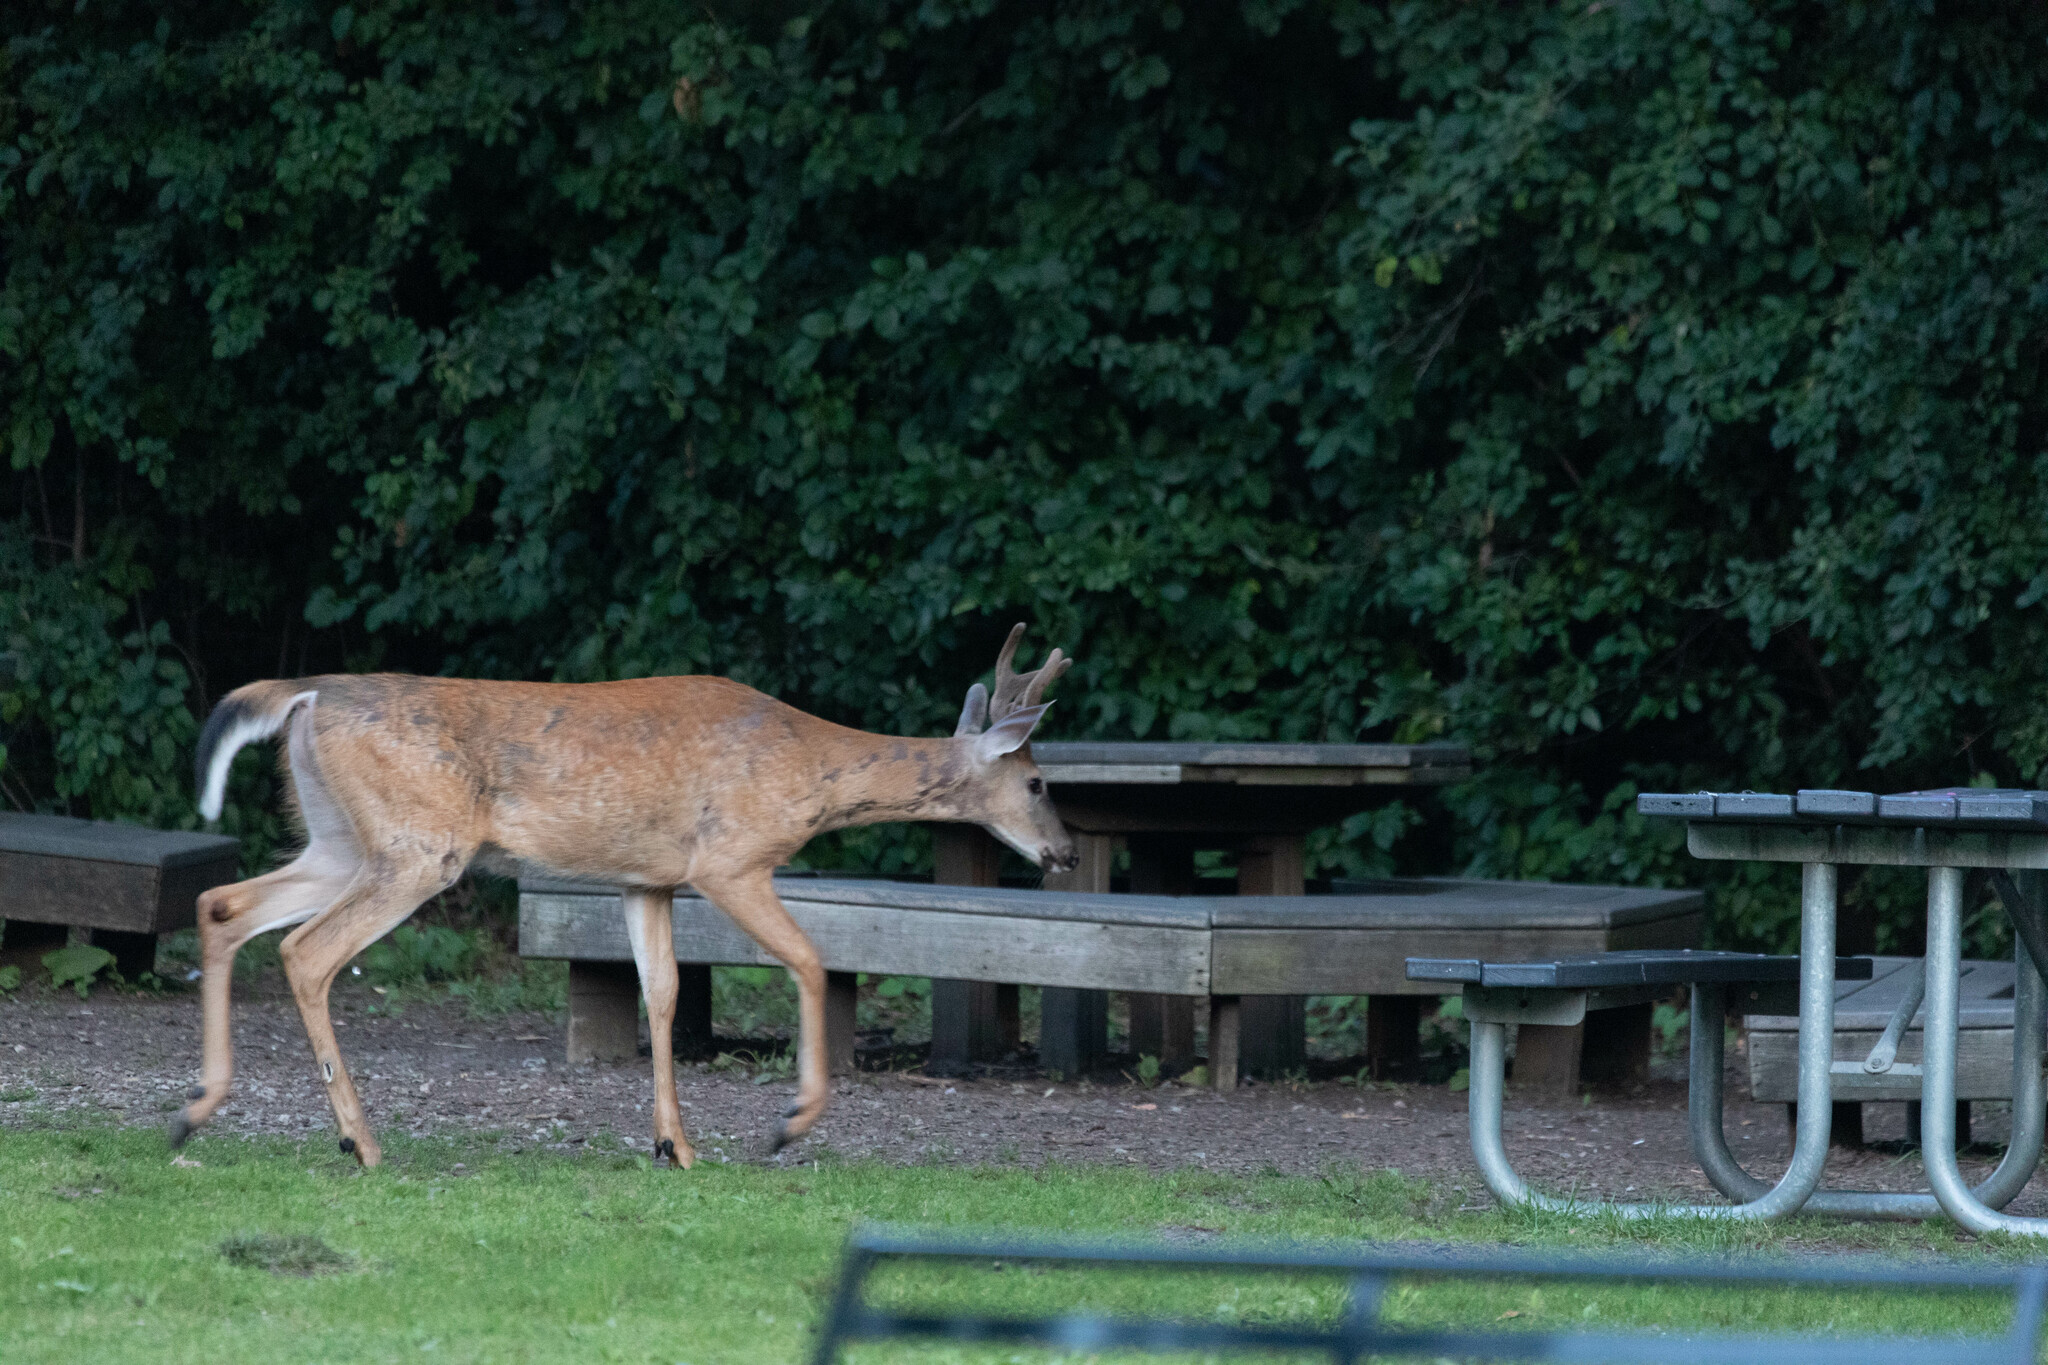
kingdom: Animalia
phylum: Chordata
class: Mammalia
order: Artiodactyla
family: Cervidae
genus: Odocoileus
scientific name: Odocoileus virginianus
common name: White-tailed deer
